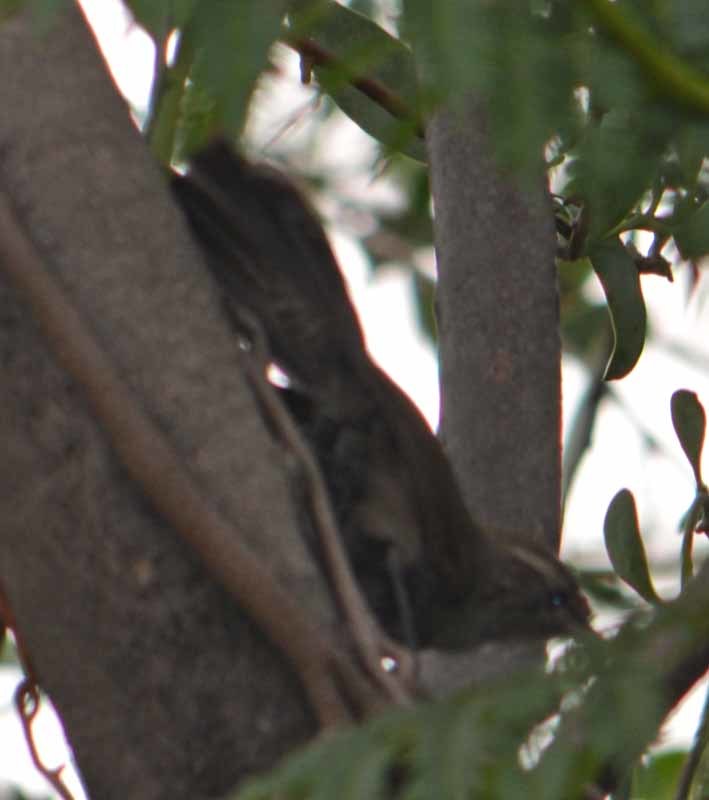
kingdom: Animalia
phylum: Chordata
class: Aves
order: Passeriformes
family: Troglodytidae
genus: Thryomanes
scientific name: Thryomanes bewickii
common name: Bewick's wren
